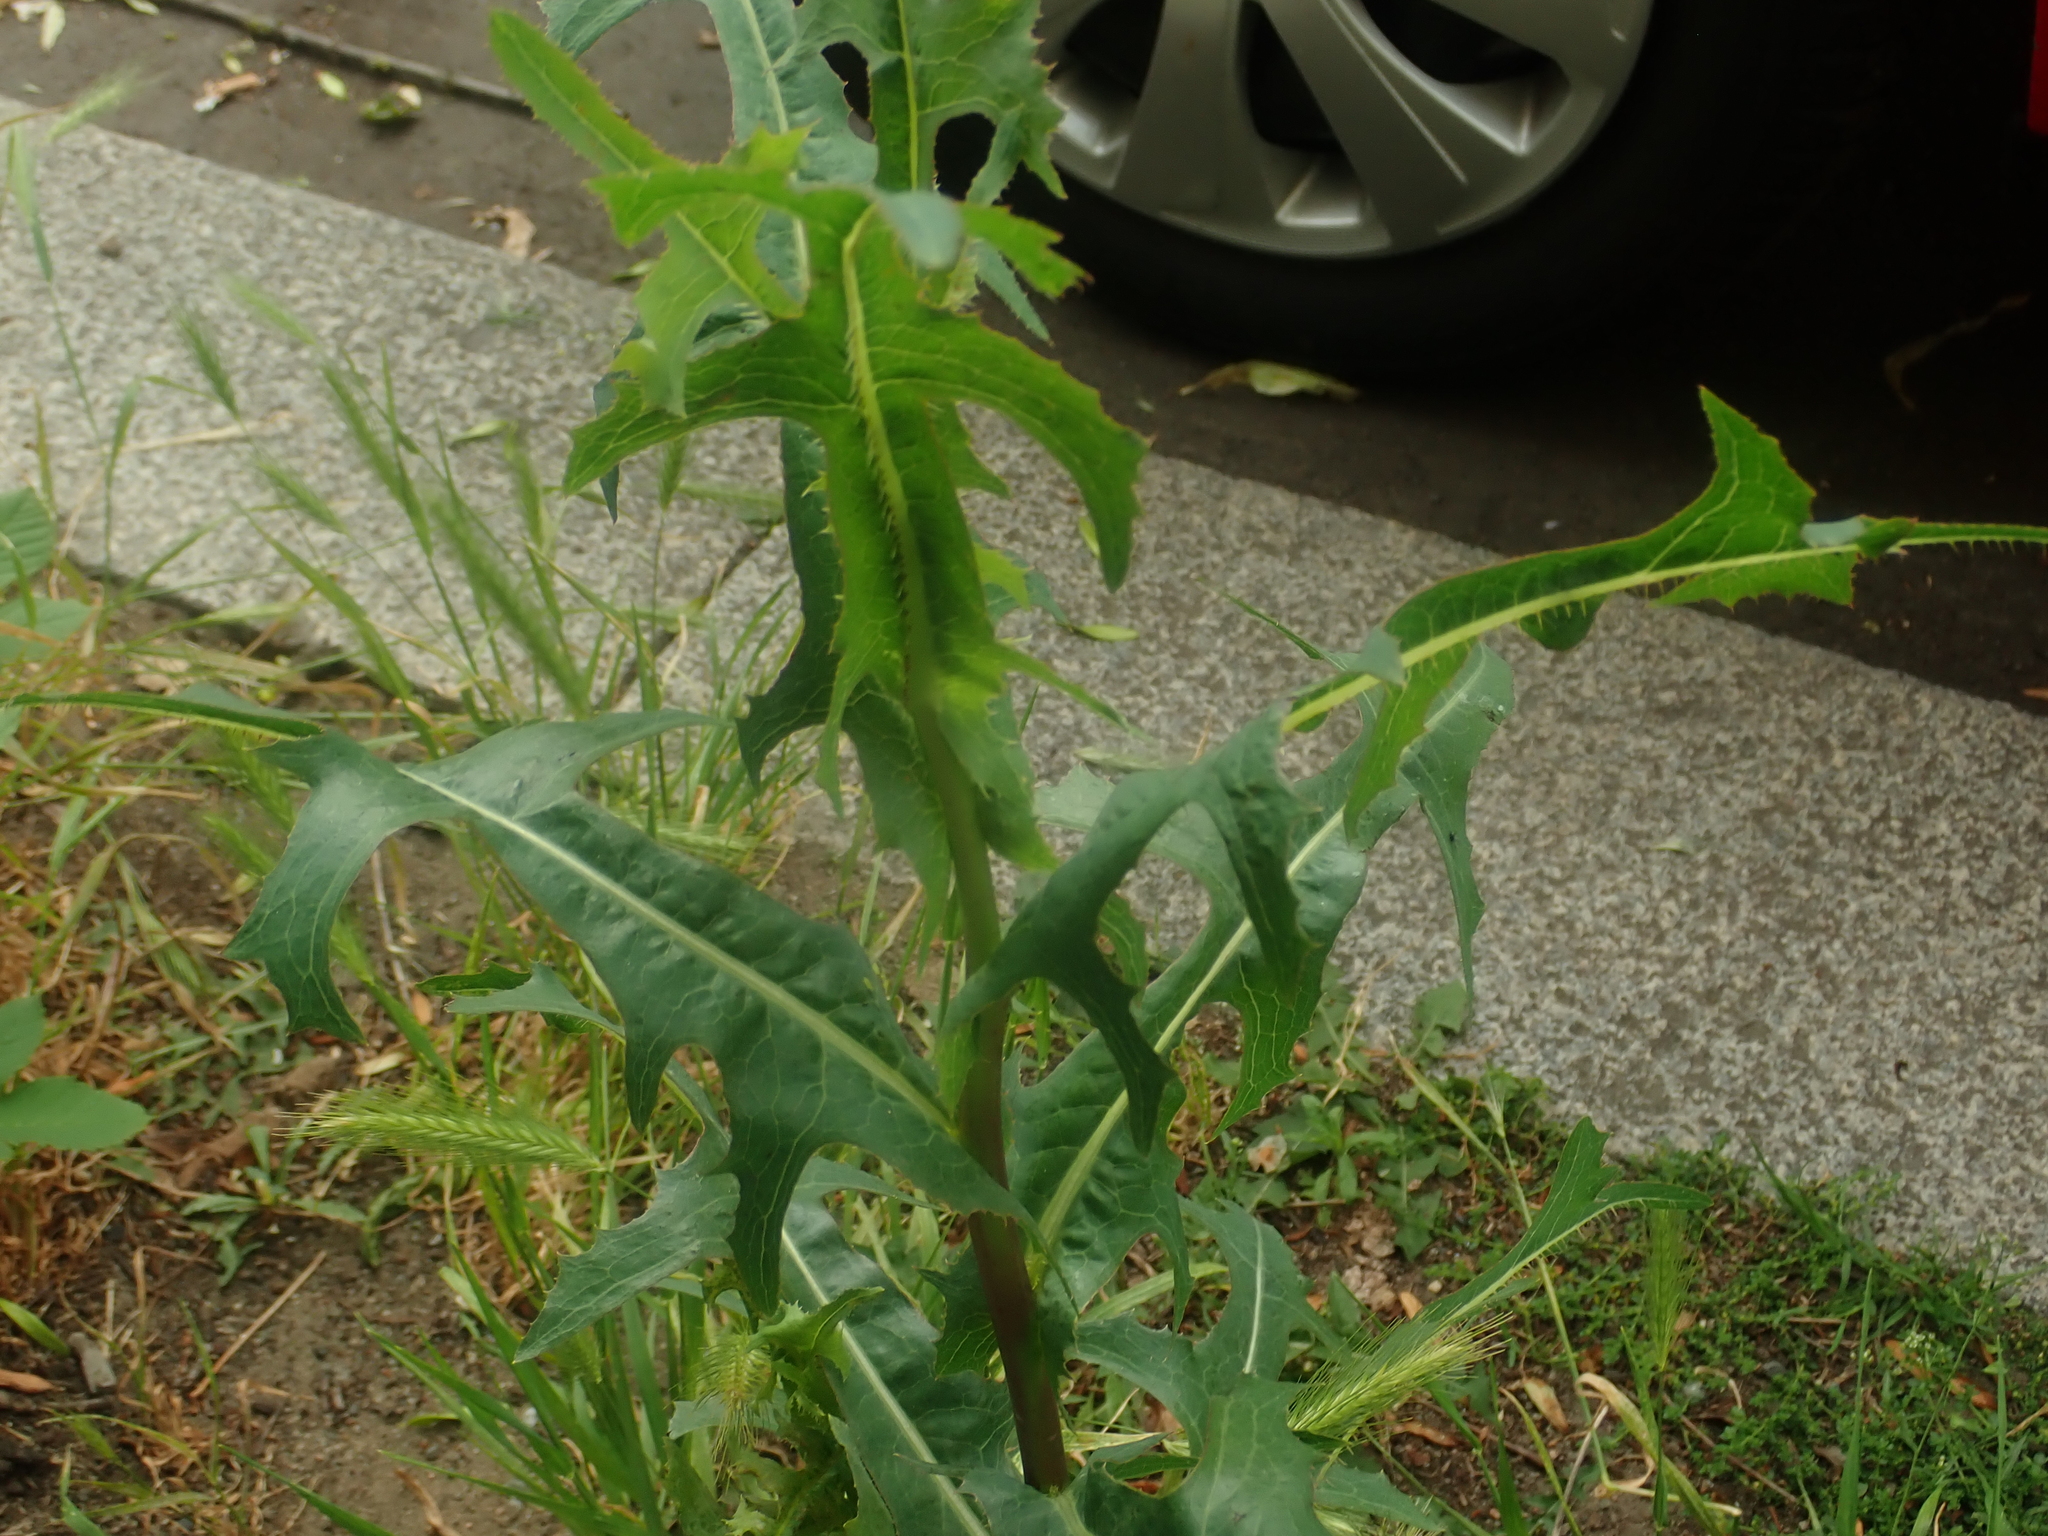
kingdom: Plantae
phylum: Tracheophyta
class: Magnoliopsida
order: Asterales
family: Asteraceae
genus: Lactuca
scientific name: Lactuca serriola
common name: Prickly lettuce
